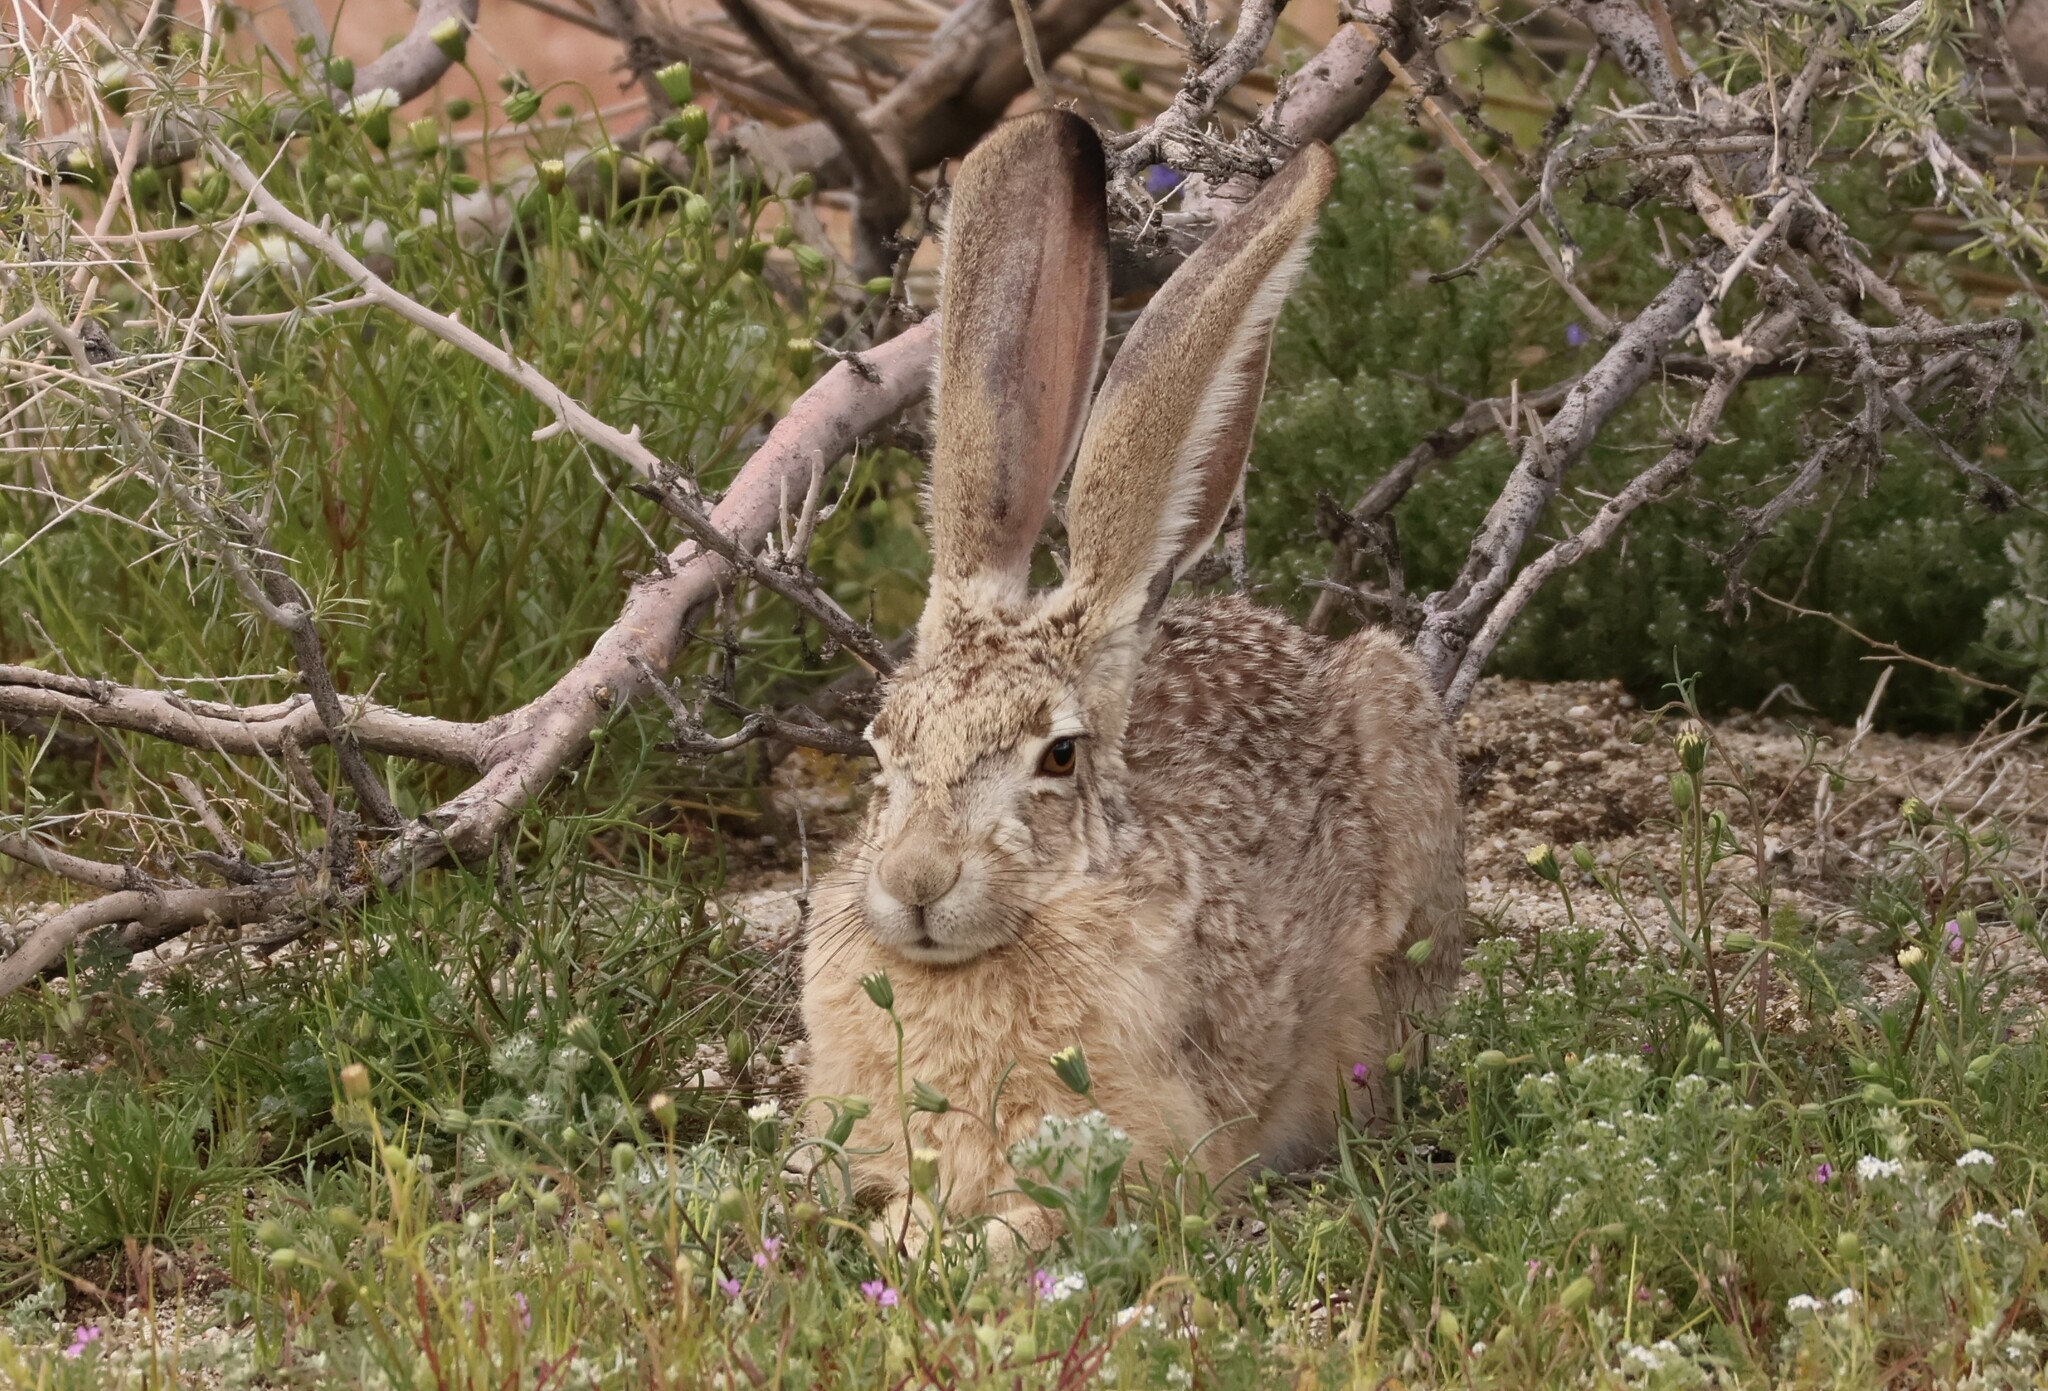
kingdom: Animalia
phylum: Chordata
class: Mammalia
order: Lagomorpha
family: Leporidae
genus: Lepus
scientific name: Lepus californicus
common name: Black-tailed jackrabbit
